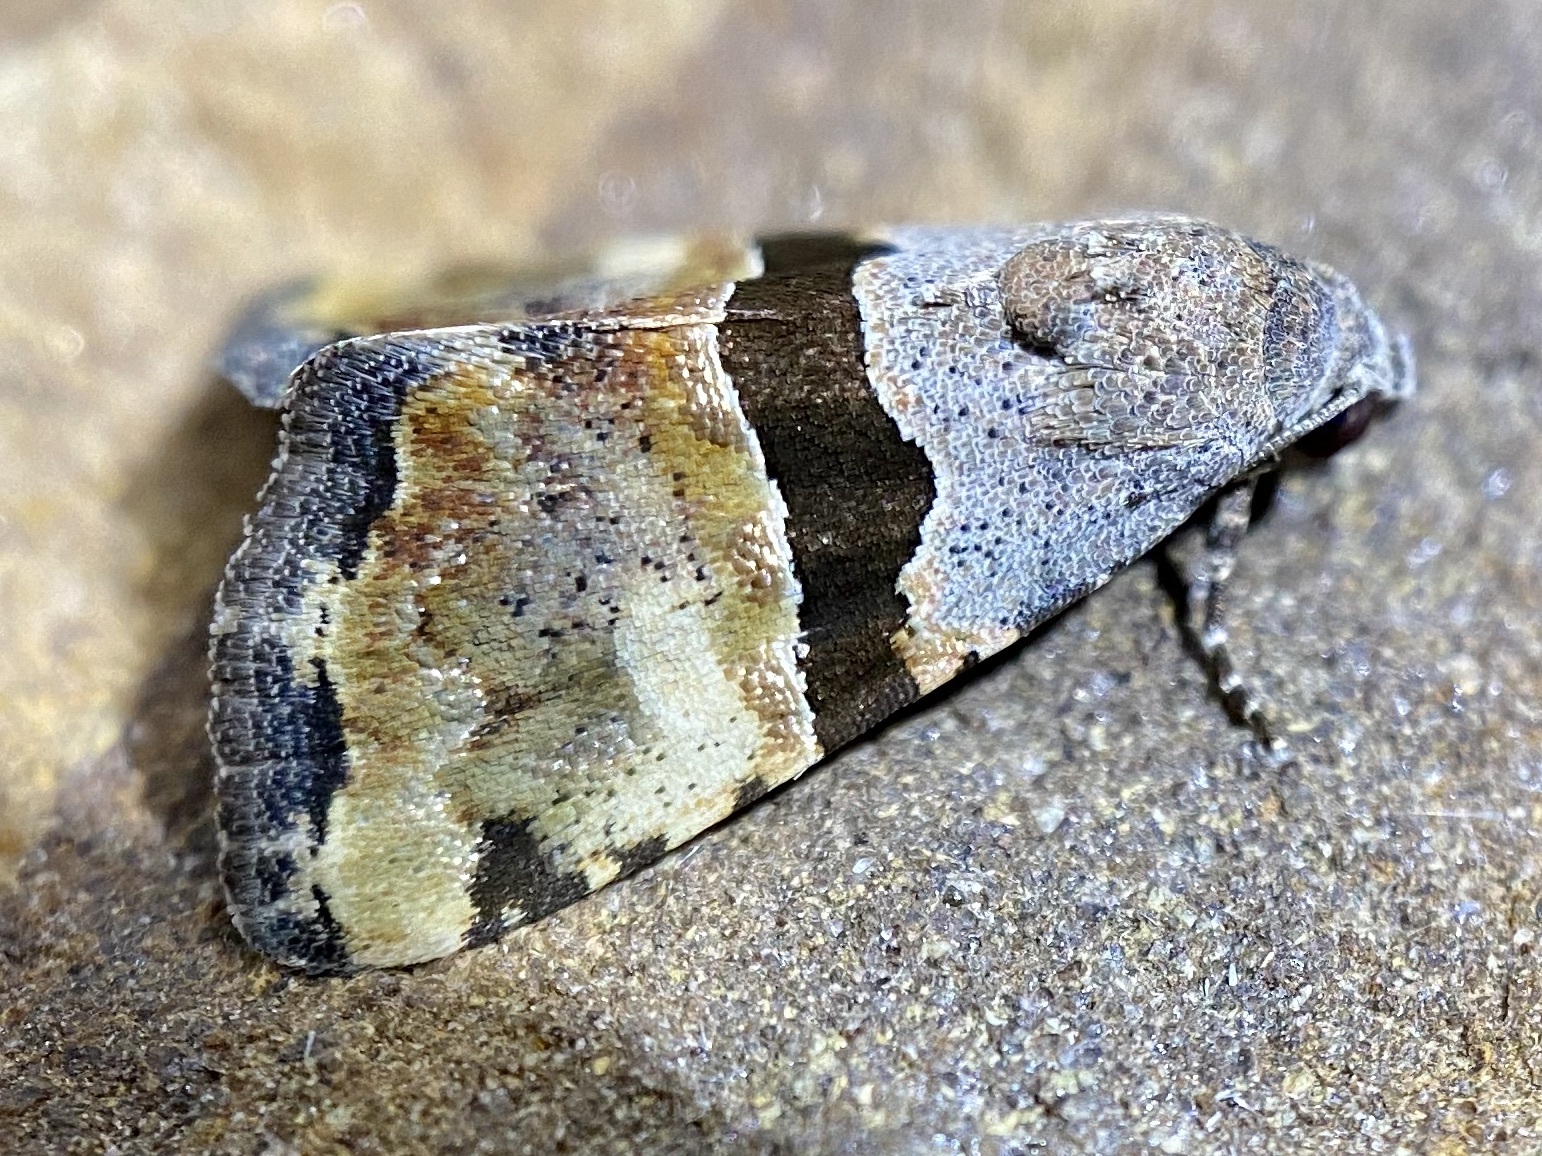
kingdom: Animalia
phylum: Arthropoda
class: Insecta
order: Lepidoptera
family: Noctuidae
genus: Cobubatha
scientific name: Cobubatha lixiva
